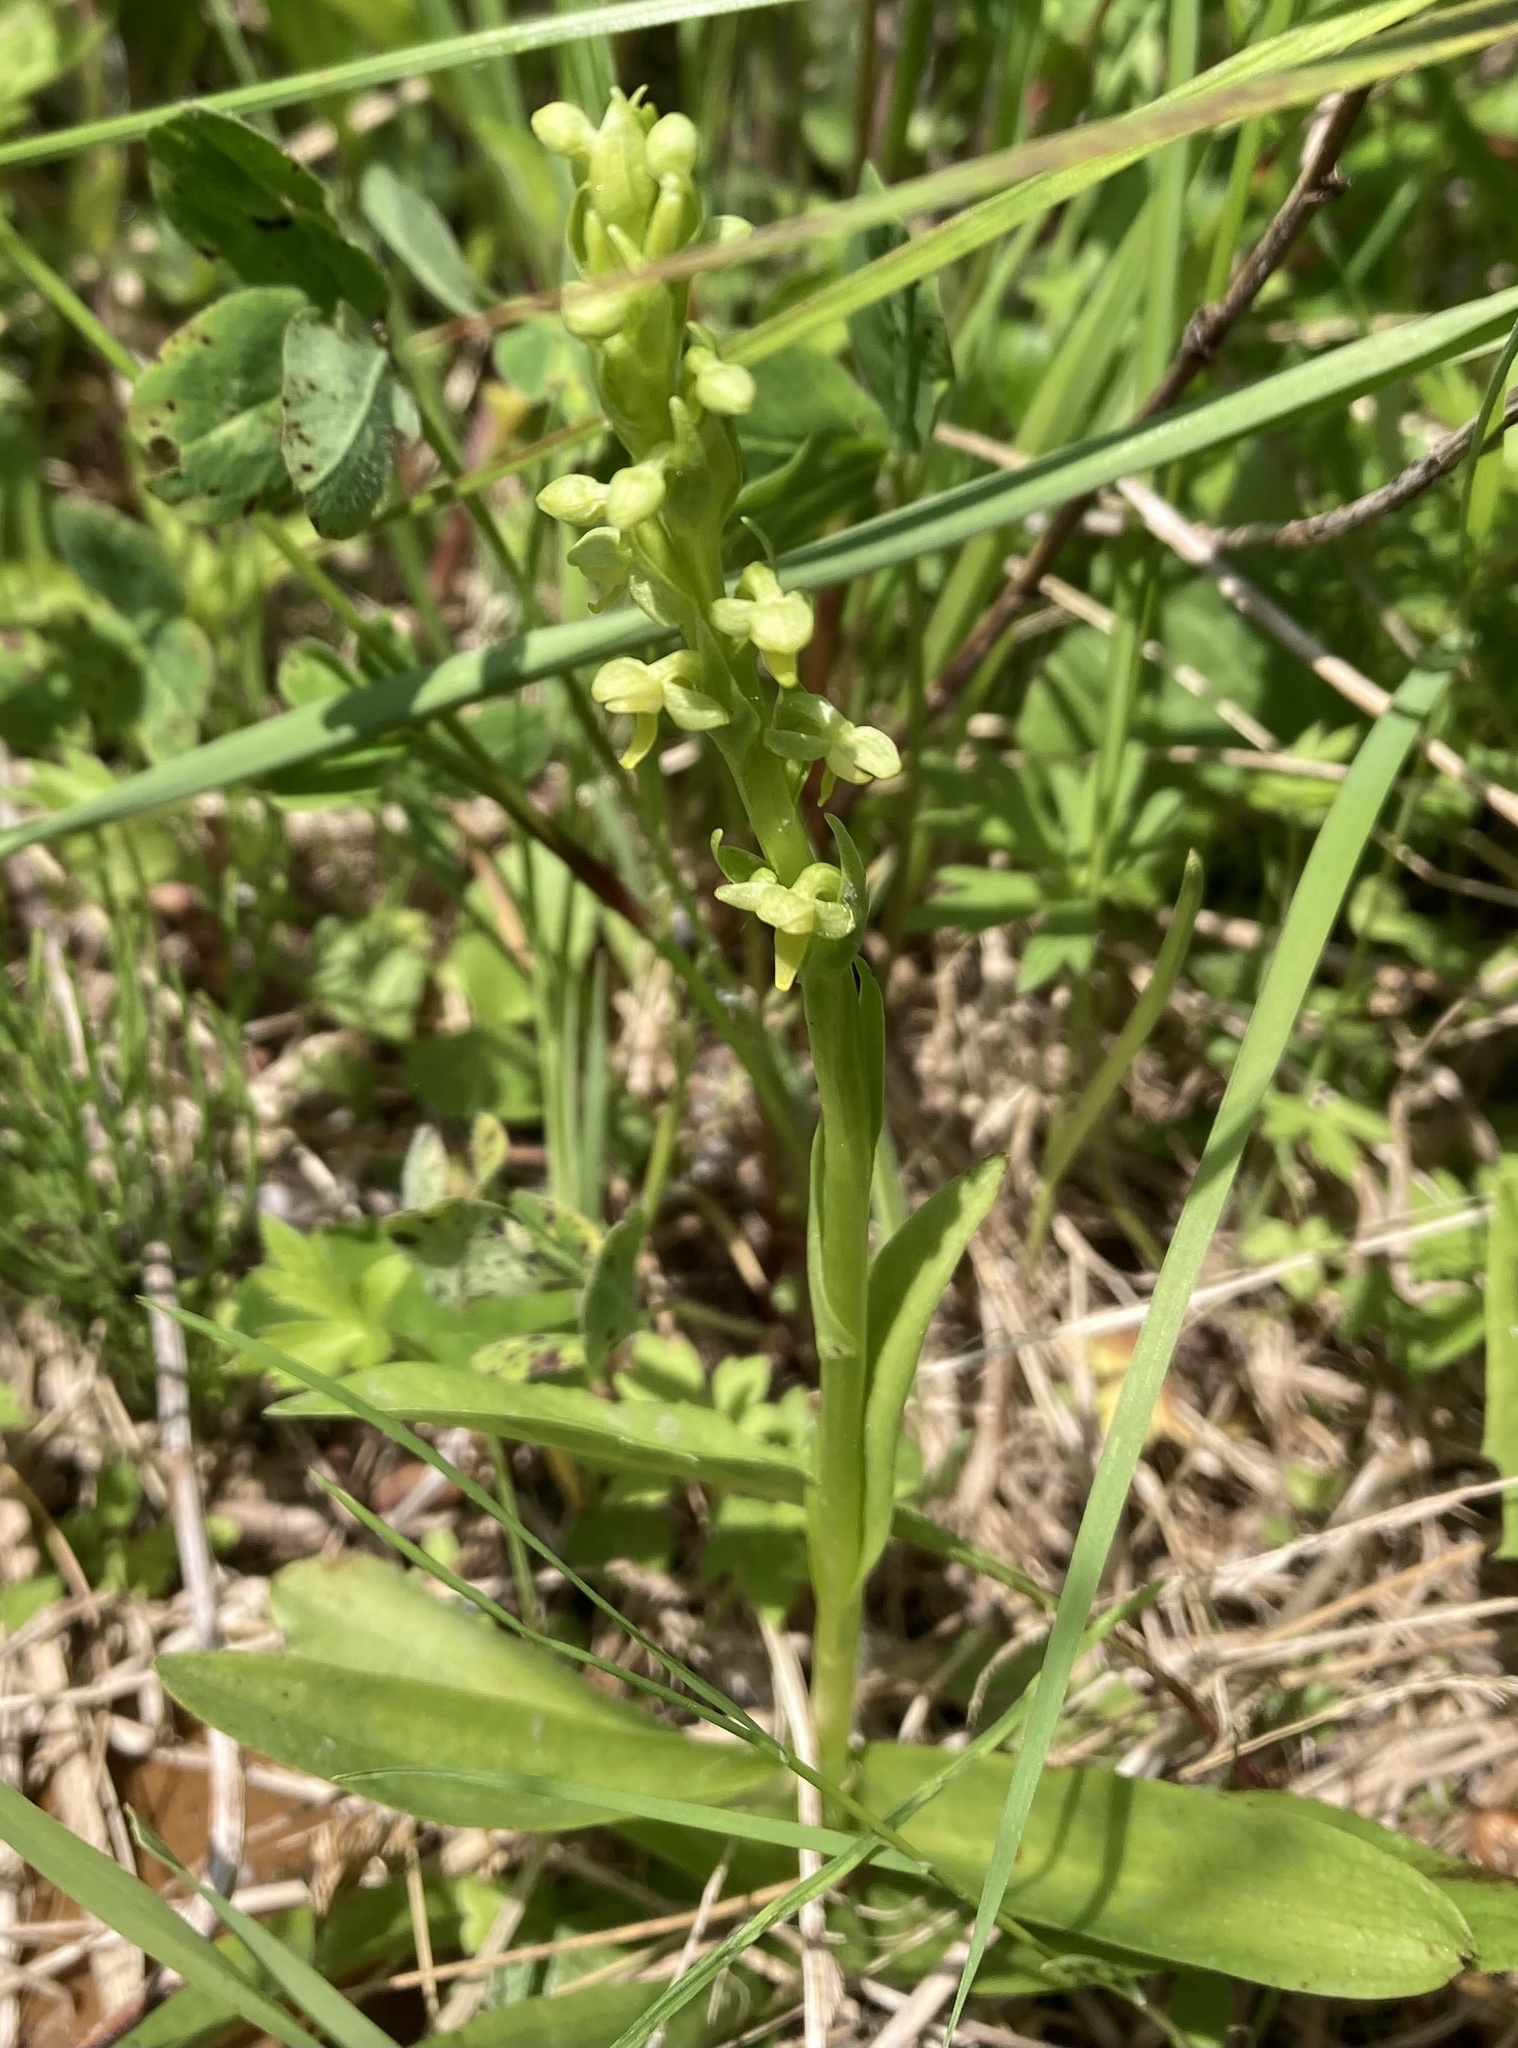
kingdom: Plantae
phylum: Tracheophyta
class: Liliopsida
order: Asparagales
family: Orchidaceae
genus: Platanthera
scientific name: Platanthera aquilonis
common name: Northern green orchid
